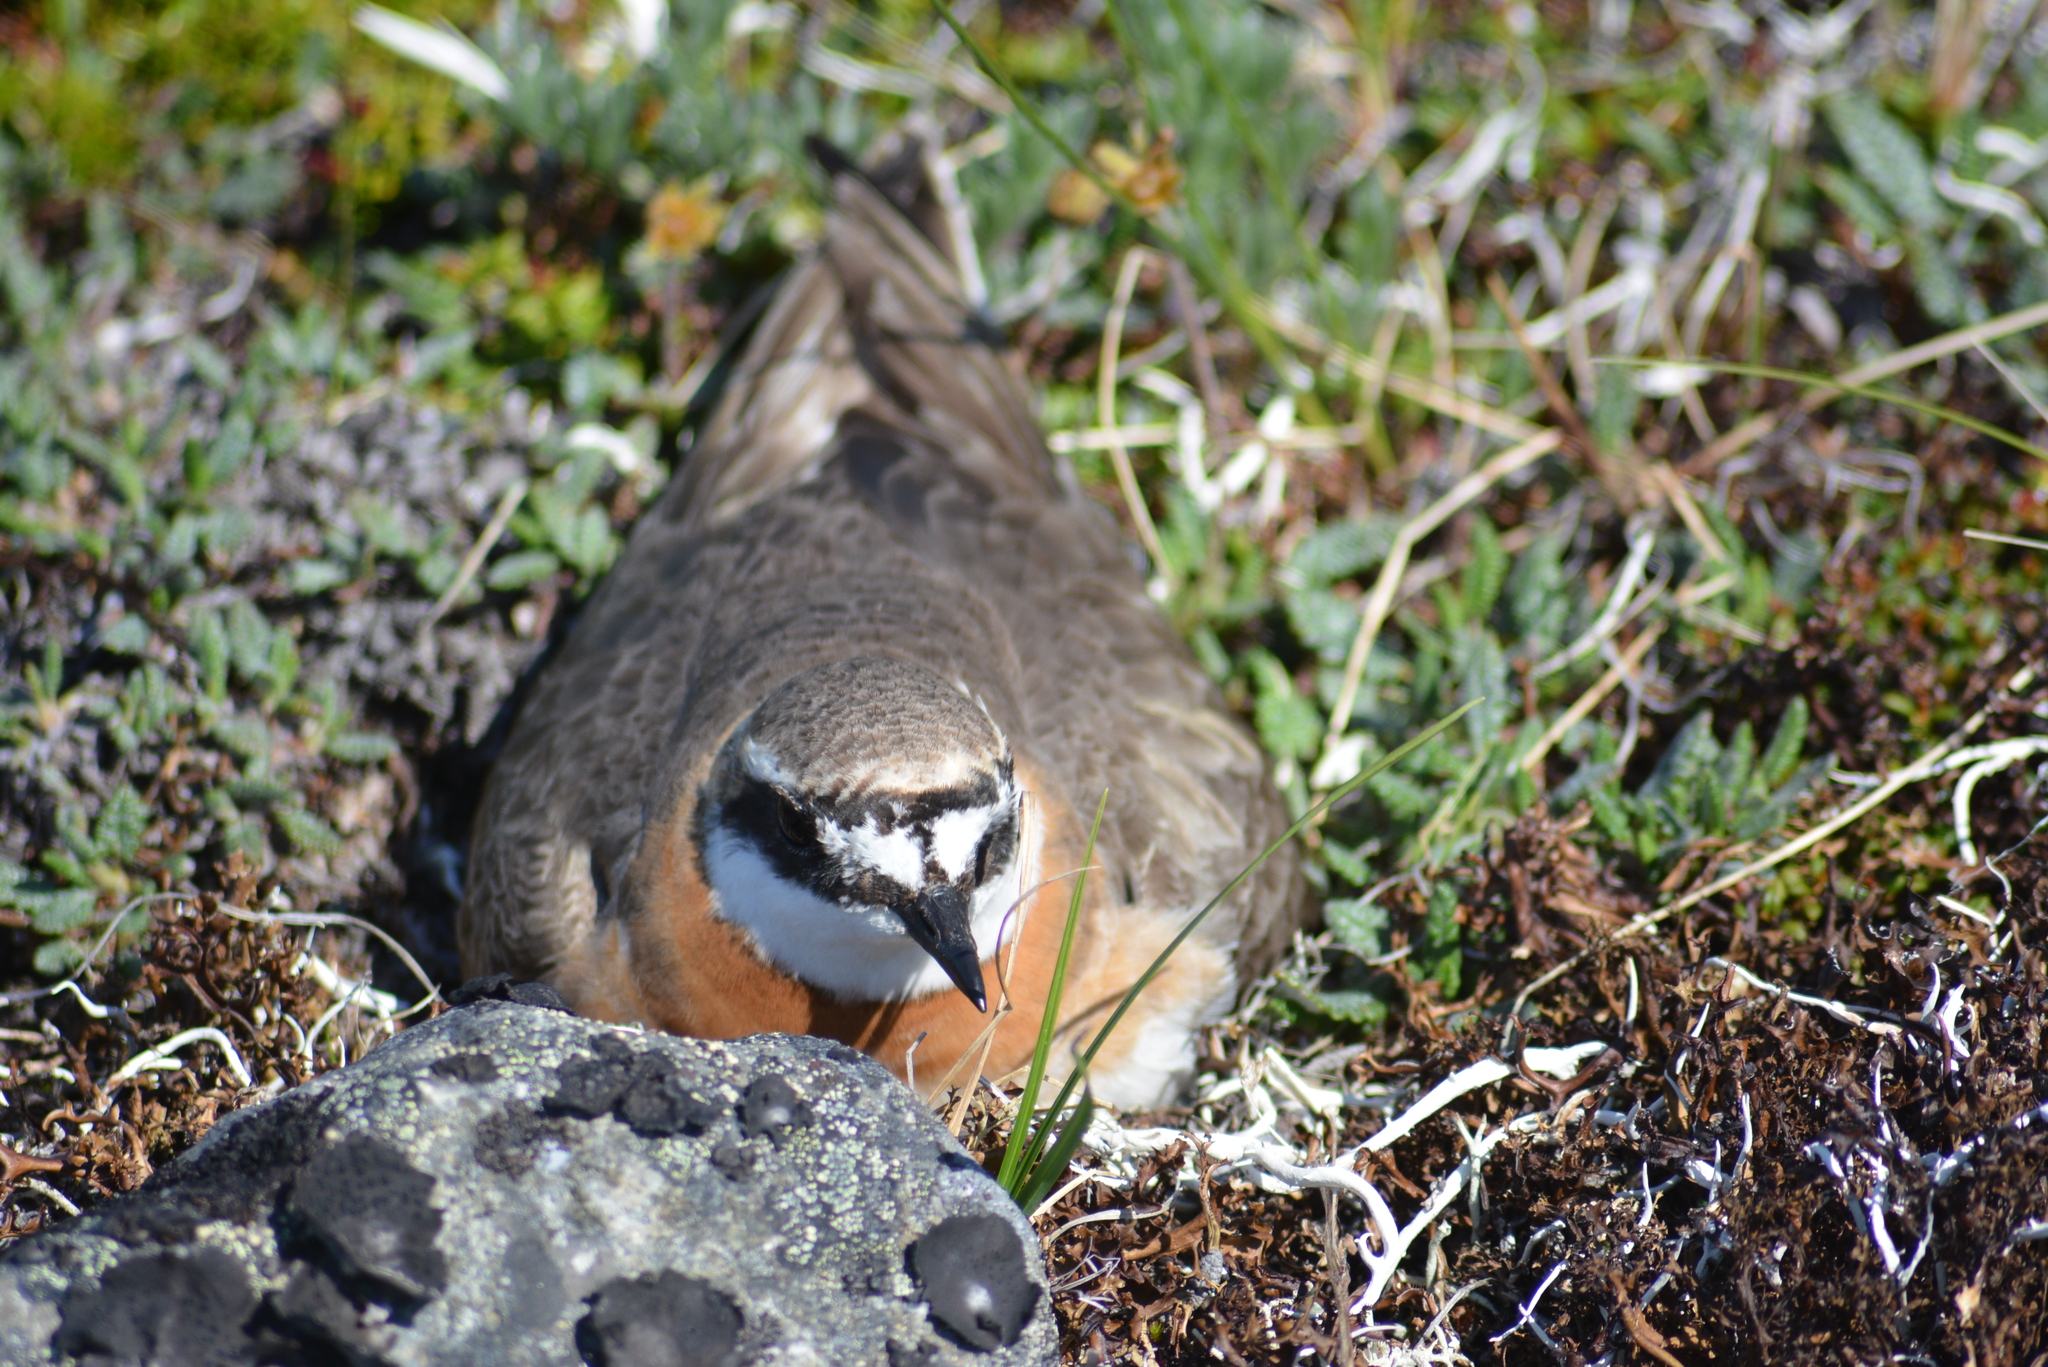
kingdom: Animalia
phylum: Chordata
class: Aves
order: Charadriiformes
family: Charadriidae
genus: Anarhynchus
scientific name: Anarhynchus
